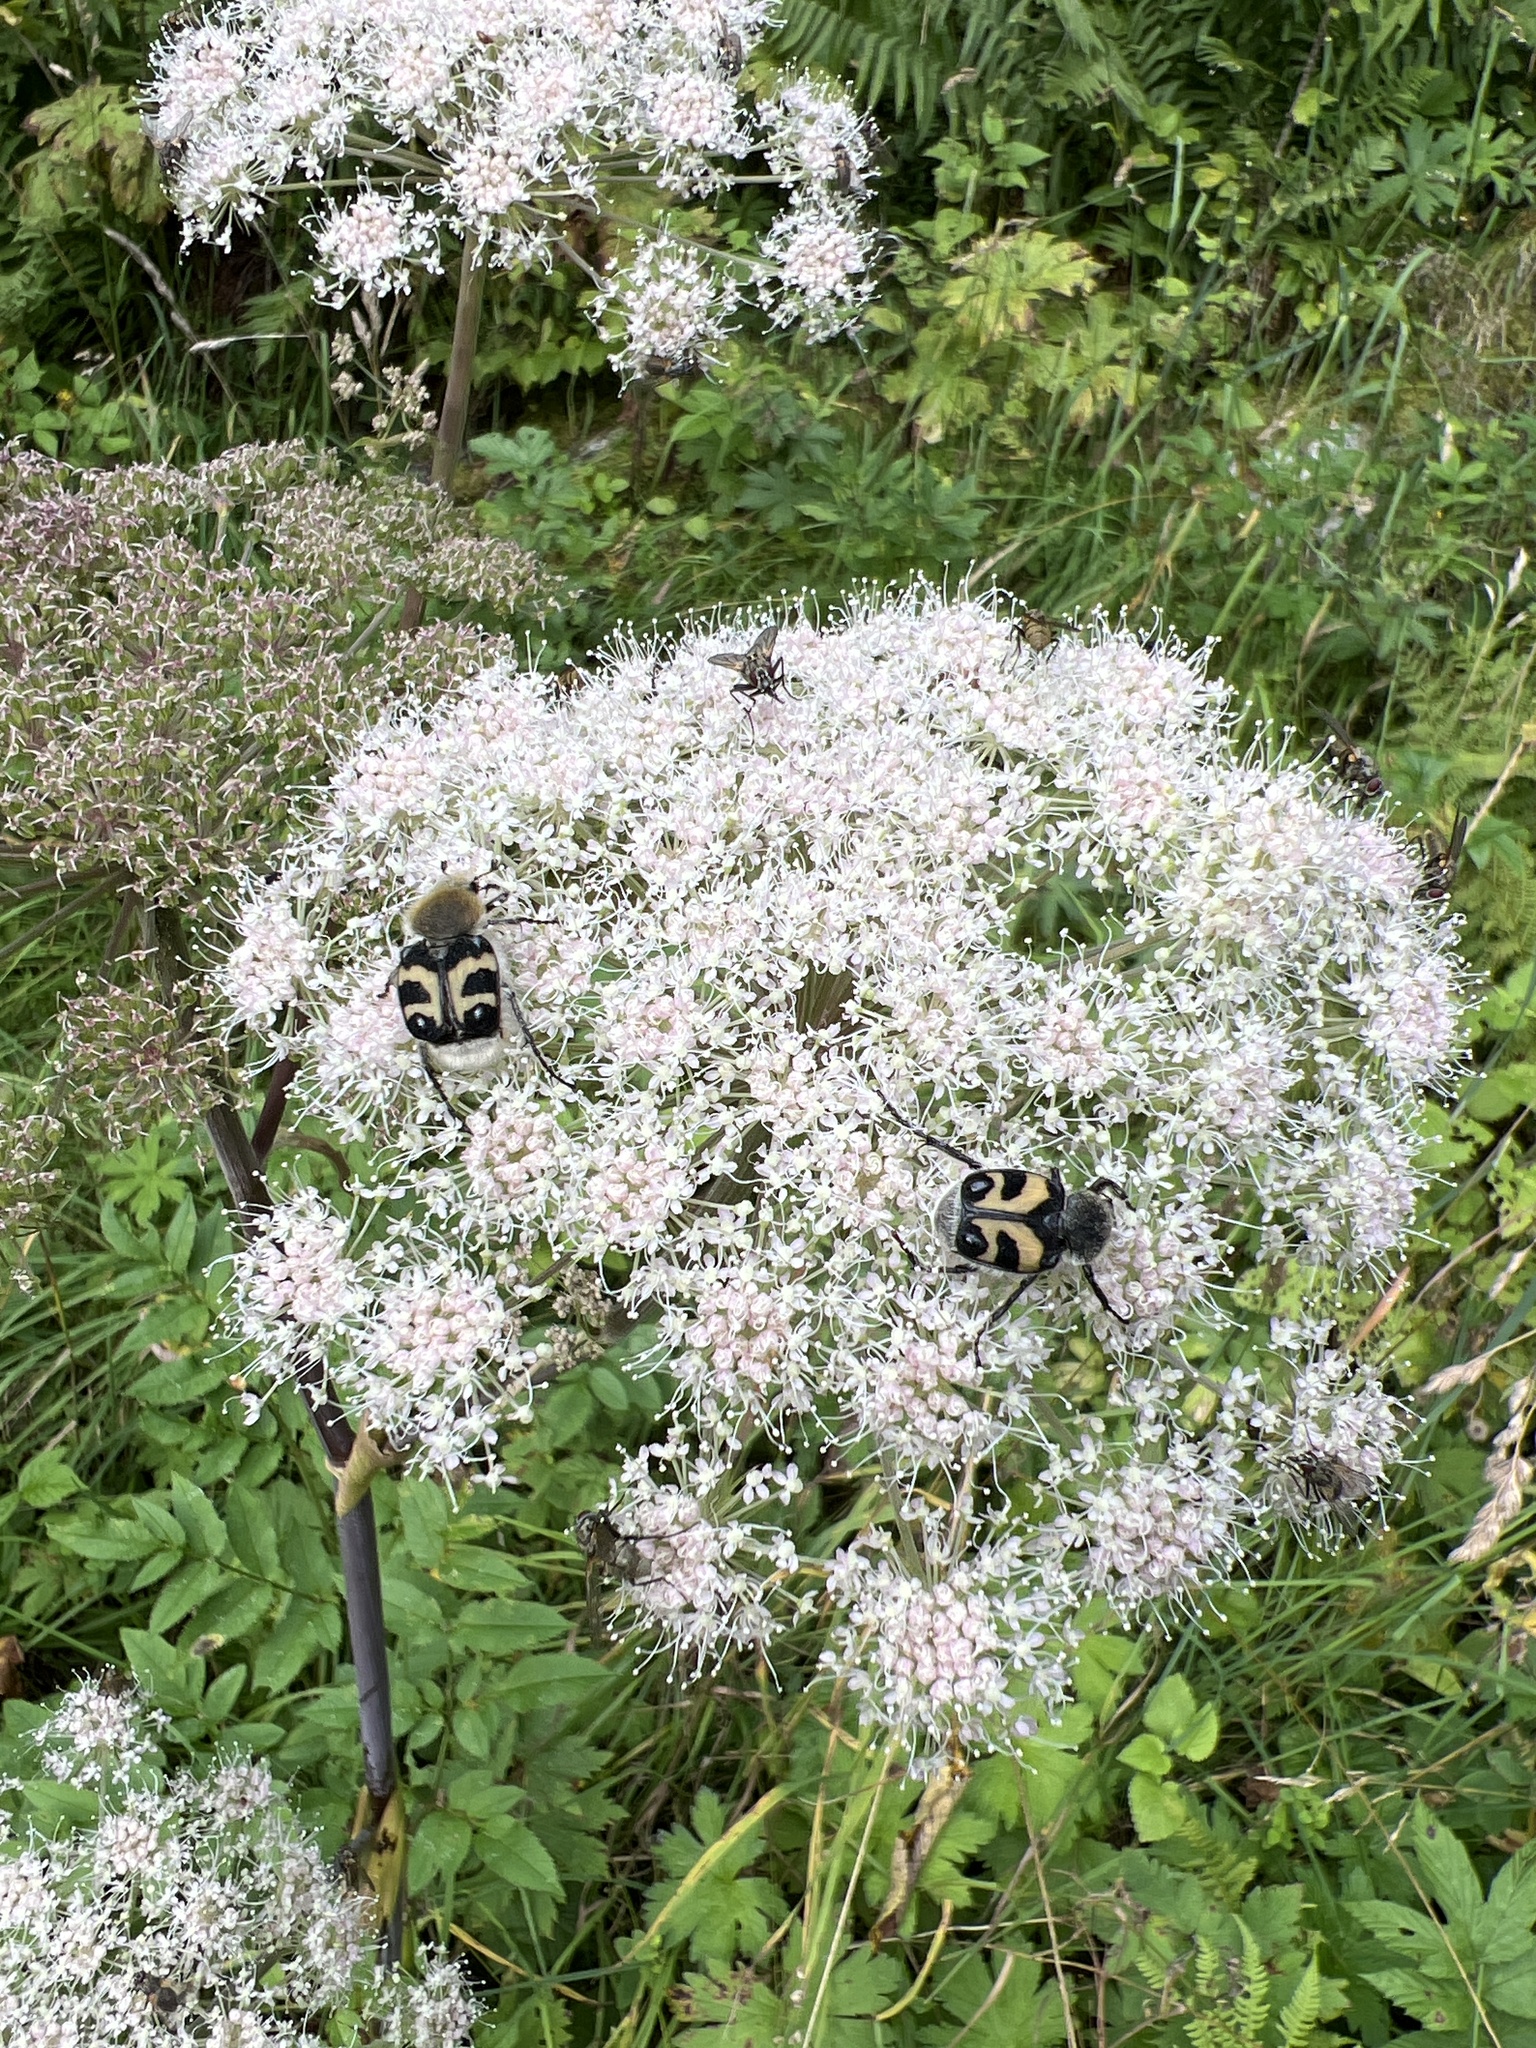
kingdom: Animalia
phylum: Arthropoda
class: Insecta
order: Coleoptera
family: Scarabaeidae
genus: Trichius
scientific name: Trichius fasciatus
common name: Bee beetle
